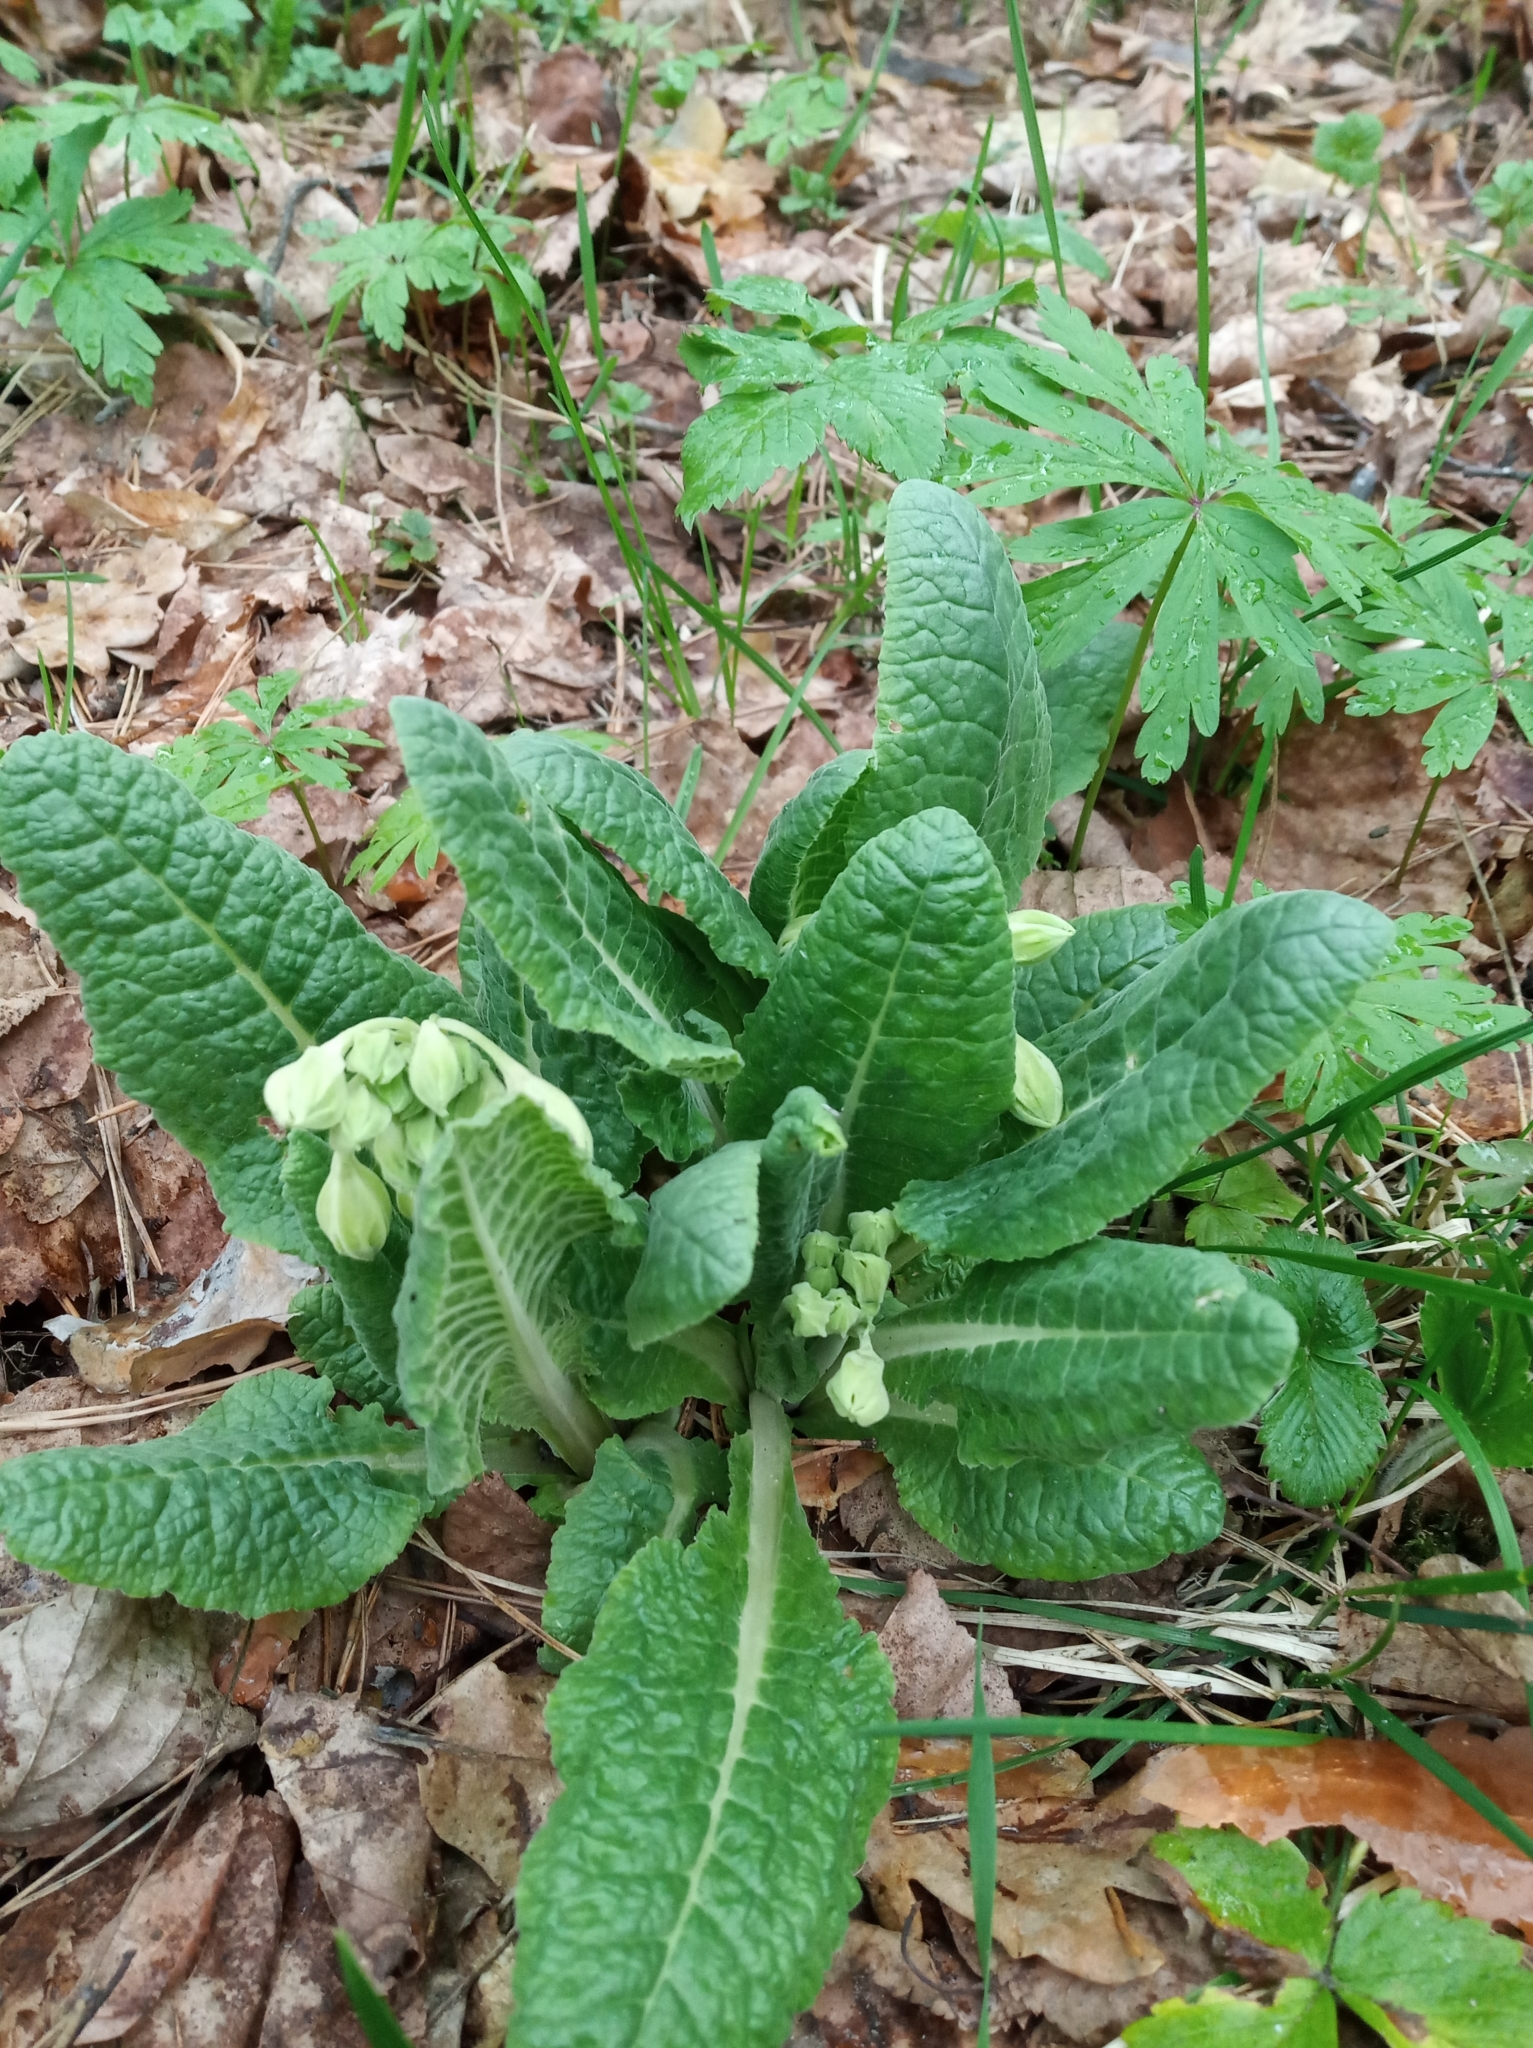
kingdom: Plantae
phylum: Tracheophyta
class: Magnoliopsida
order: Ericales
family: Primulaceae
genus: Primula
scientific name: Primula veris
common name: Cowslip
